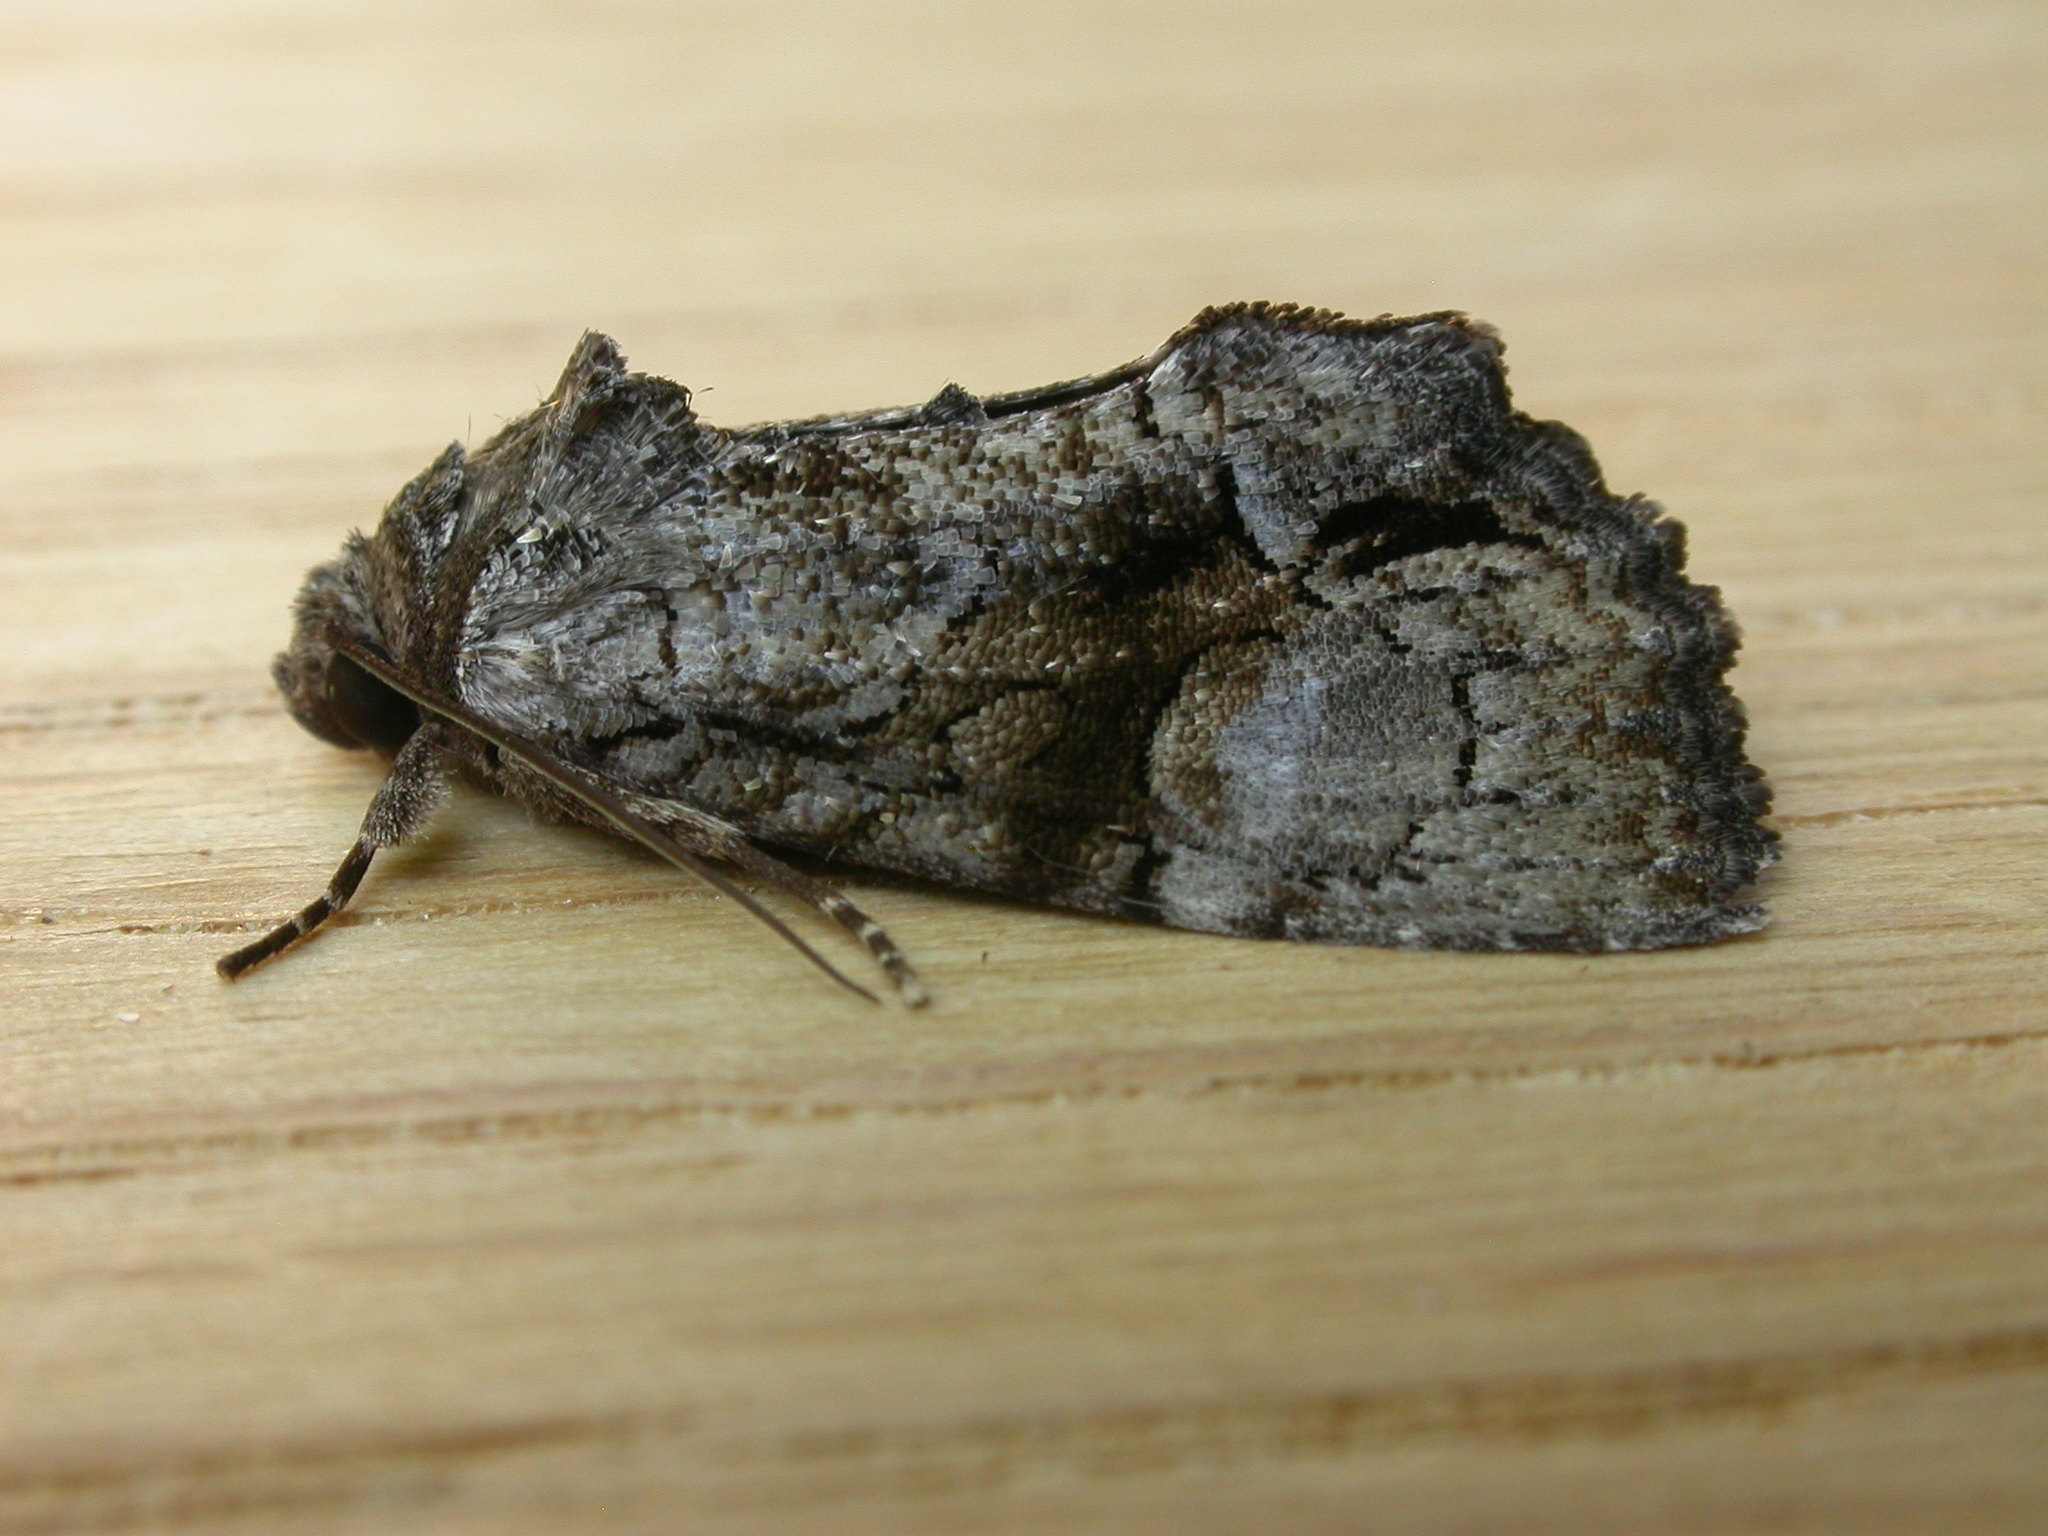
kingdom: Animalia
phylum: Arthropoda
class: Insecta
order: Lepidoptera
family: Noctuidae
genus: Epicyrtica
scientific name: Epicyrtica leucostigma
